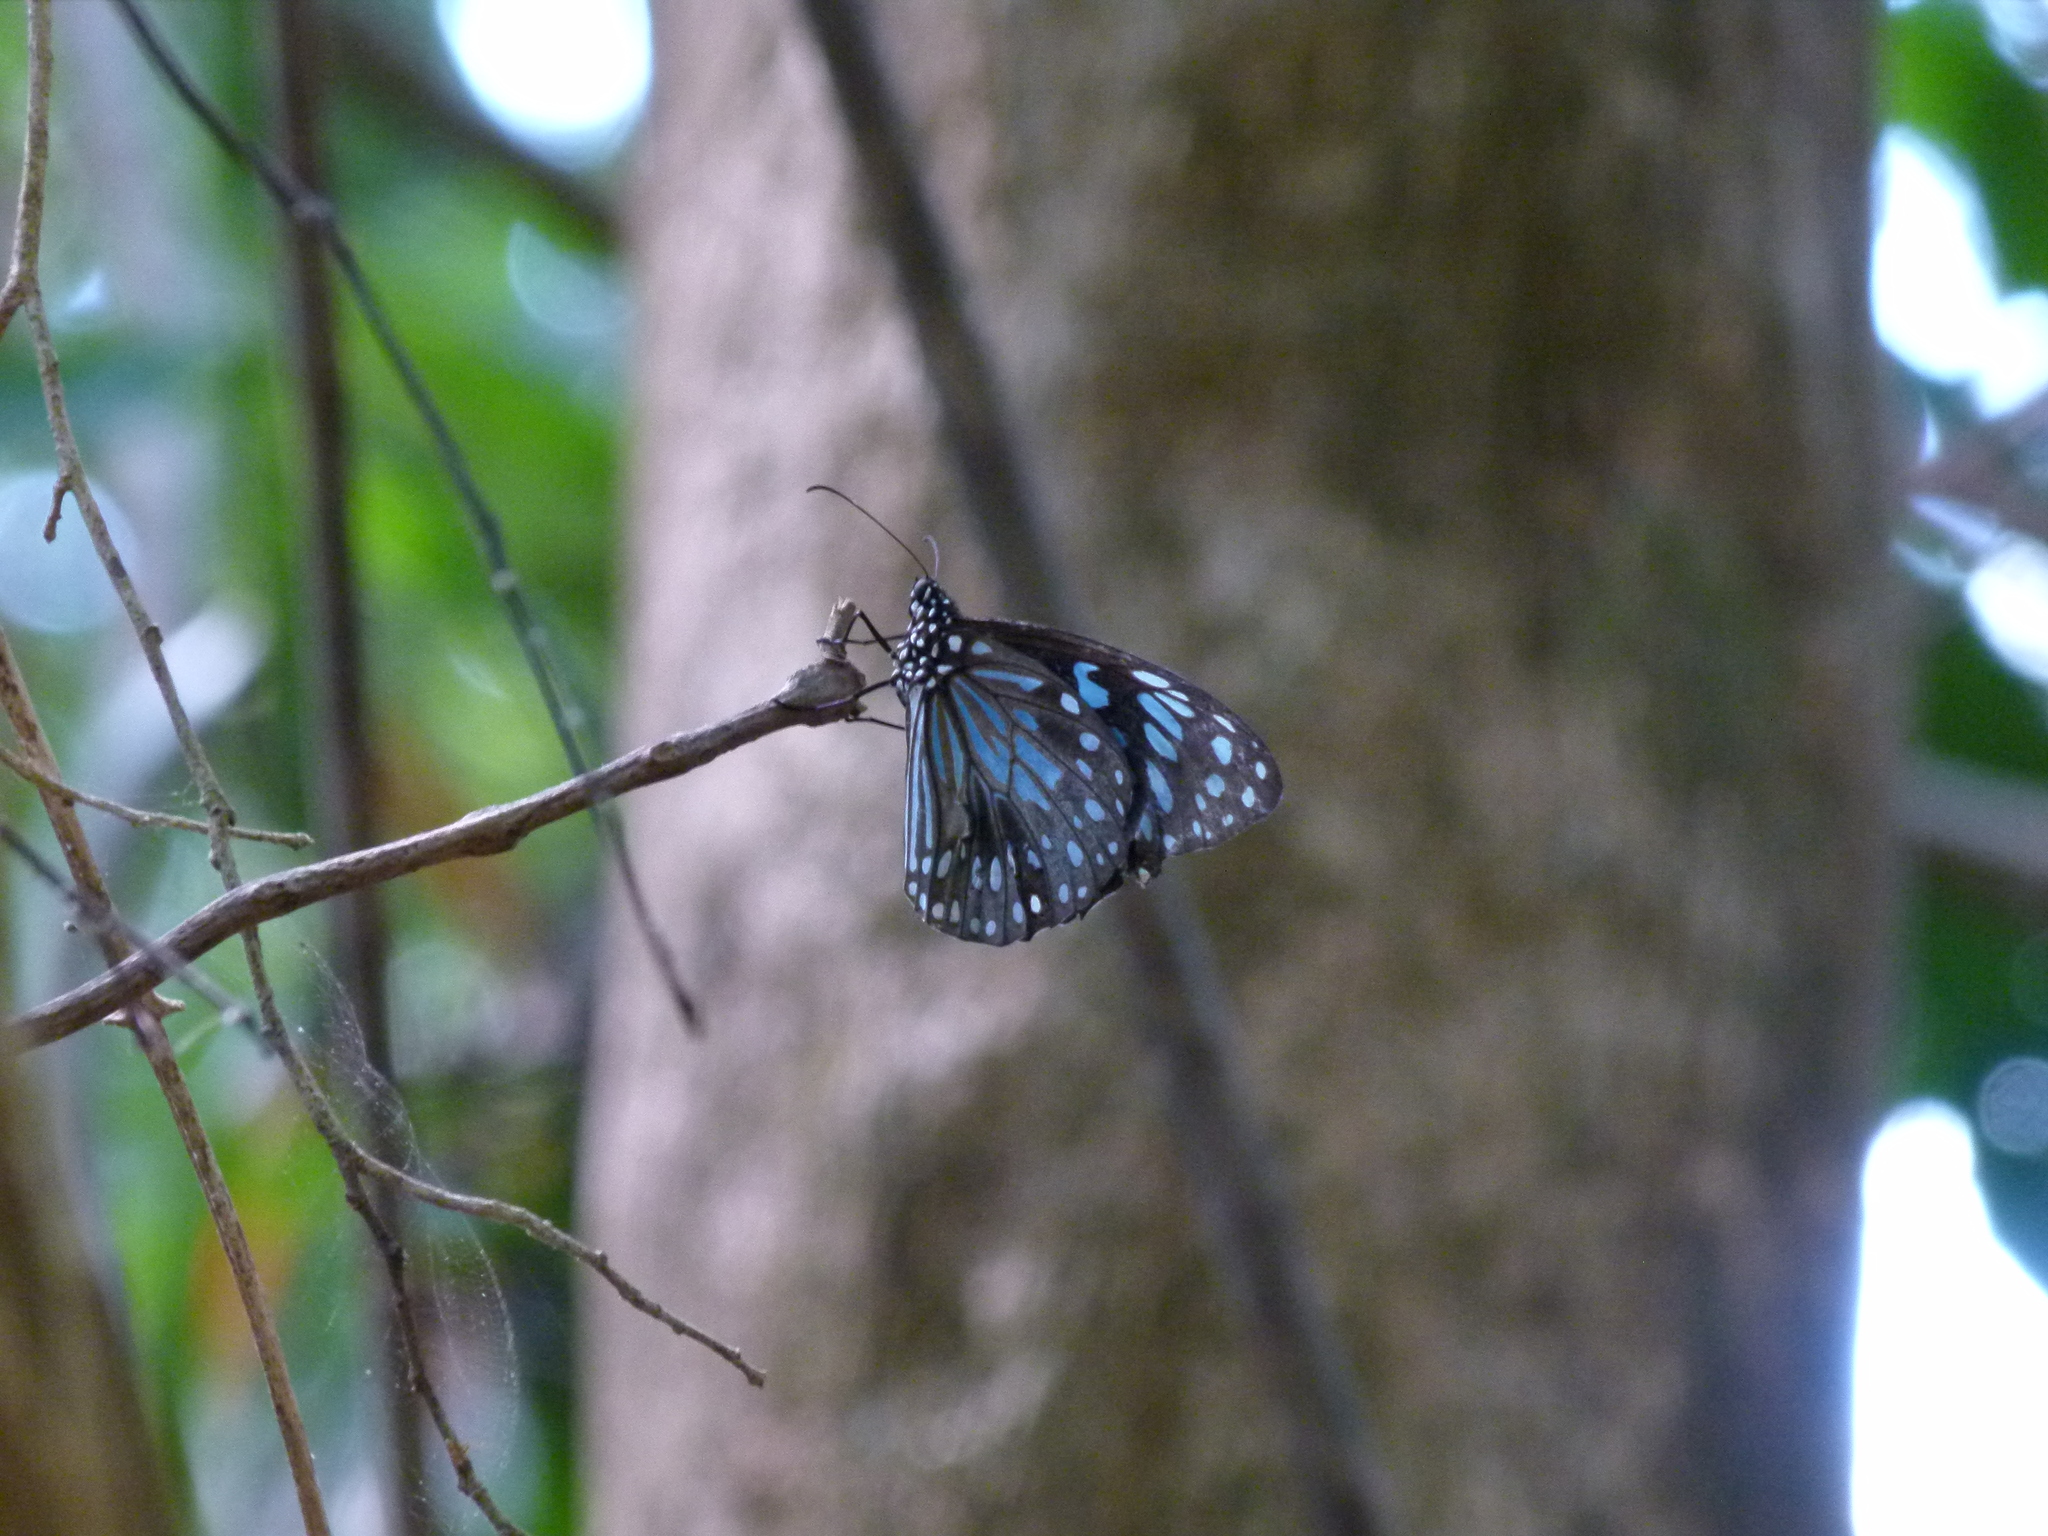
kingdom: Animalia
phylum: Arthropoda
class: Insecta
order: Lepidoptera
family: Nymphalidae
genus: Tirumala
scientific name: Tirumala hamata
